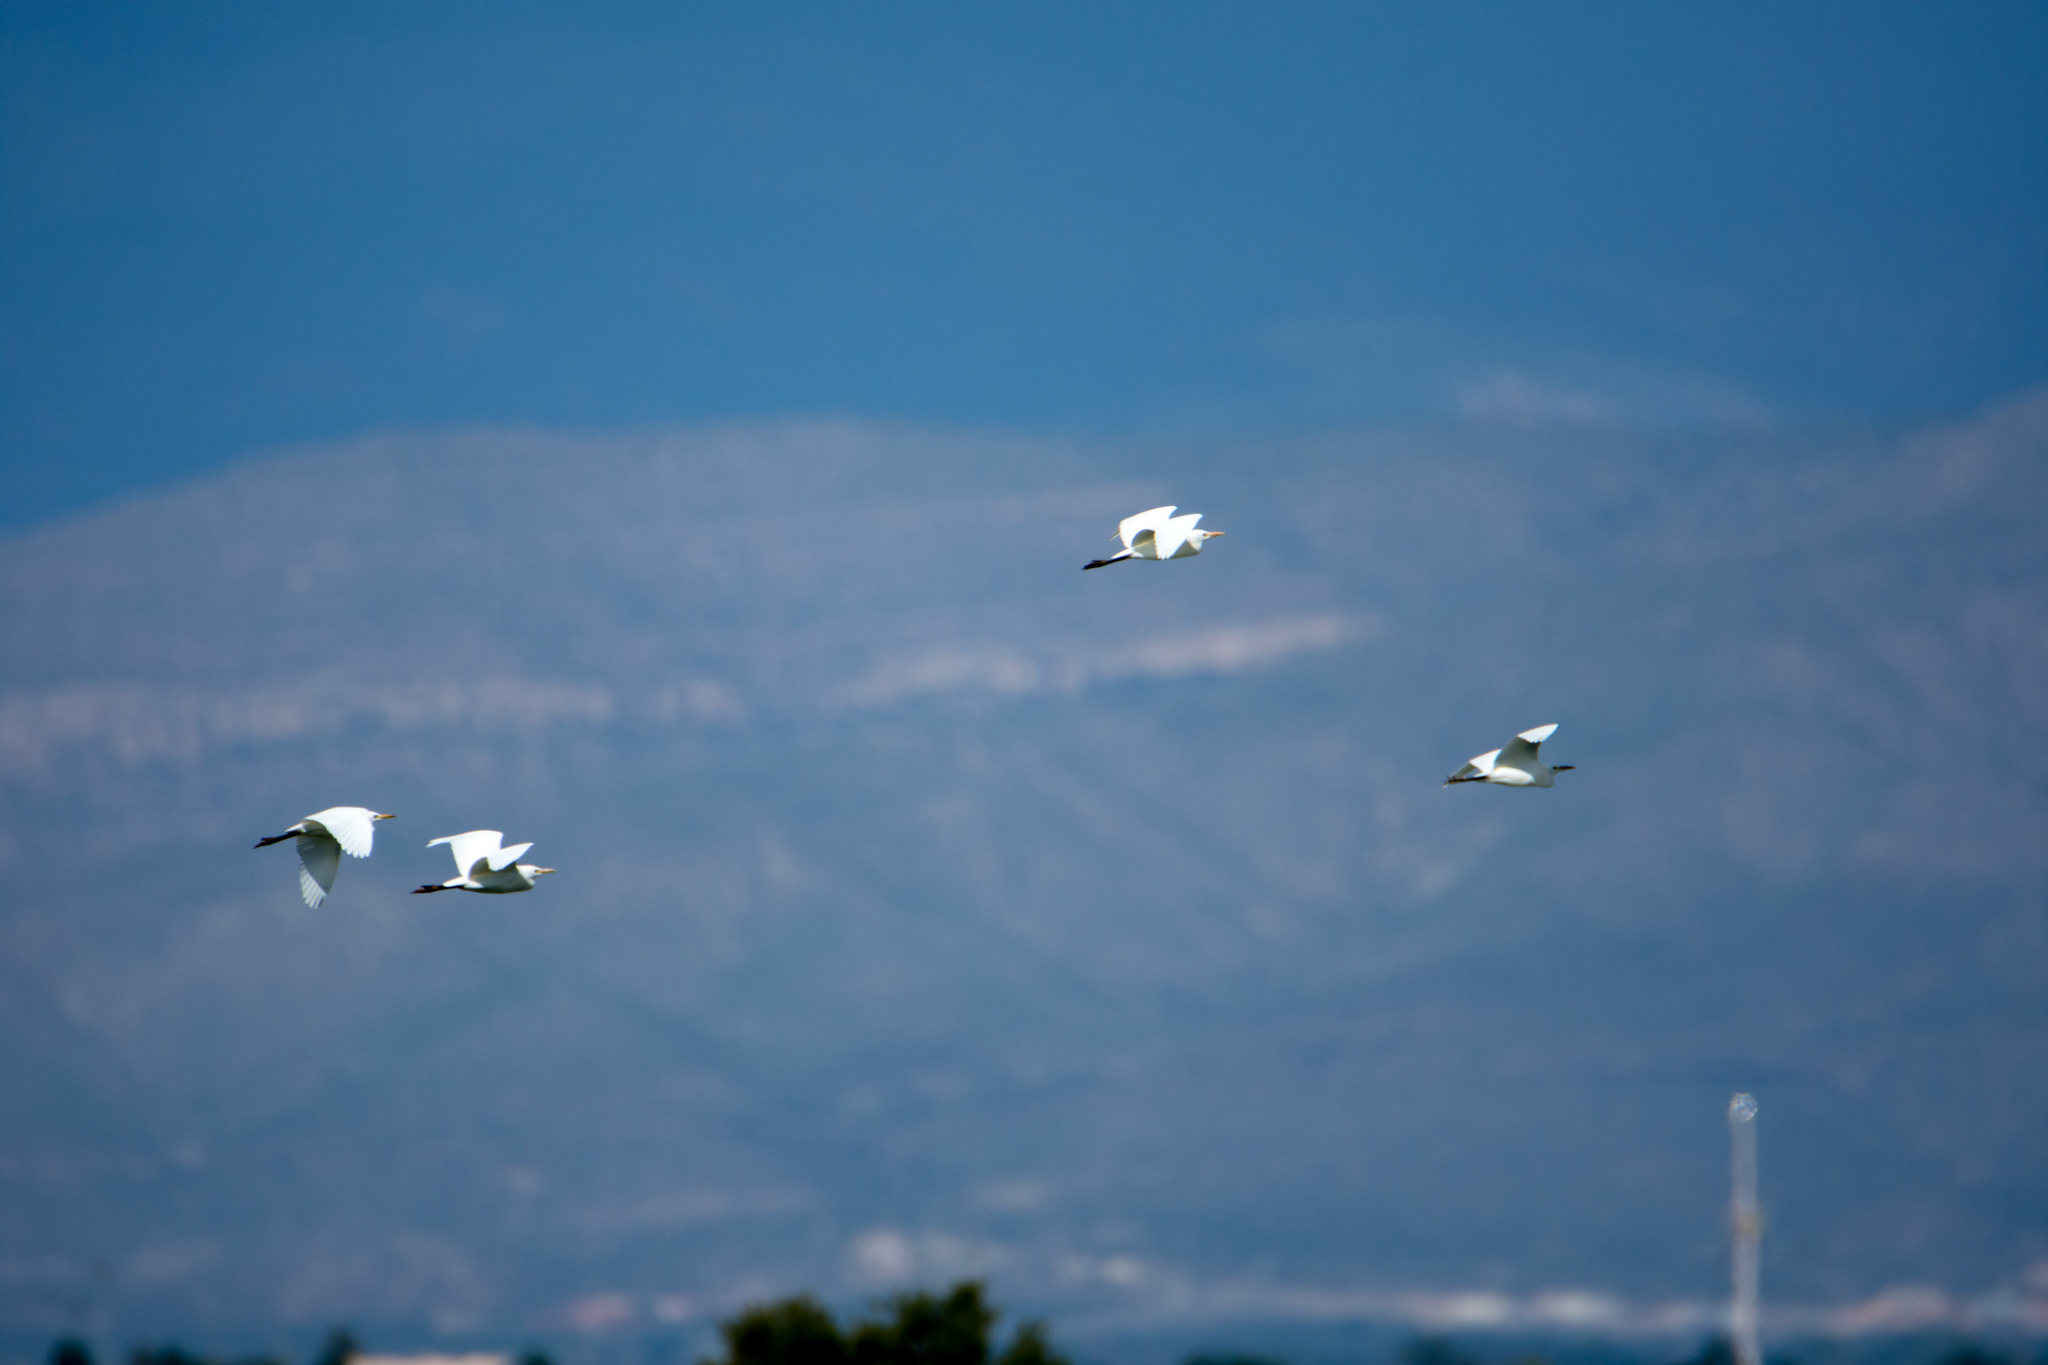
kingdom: Animalia
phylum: Chordata
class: Aves
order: Pelecaniformes
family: Ardeidae
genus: Bubulcus
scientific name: Bubulcus ibis
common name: Cattle egret
